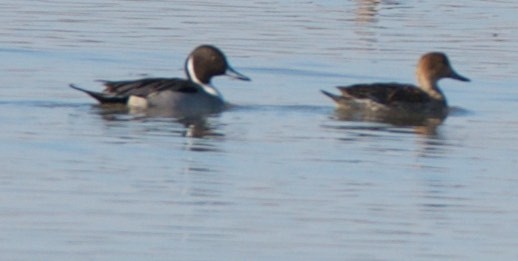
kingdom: Animalia
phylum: Chordata
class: Aves
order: Anseriformes
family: Anatidae
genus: Anas
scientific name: Anas acuta
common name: Northern pintail
